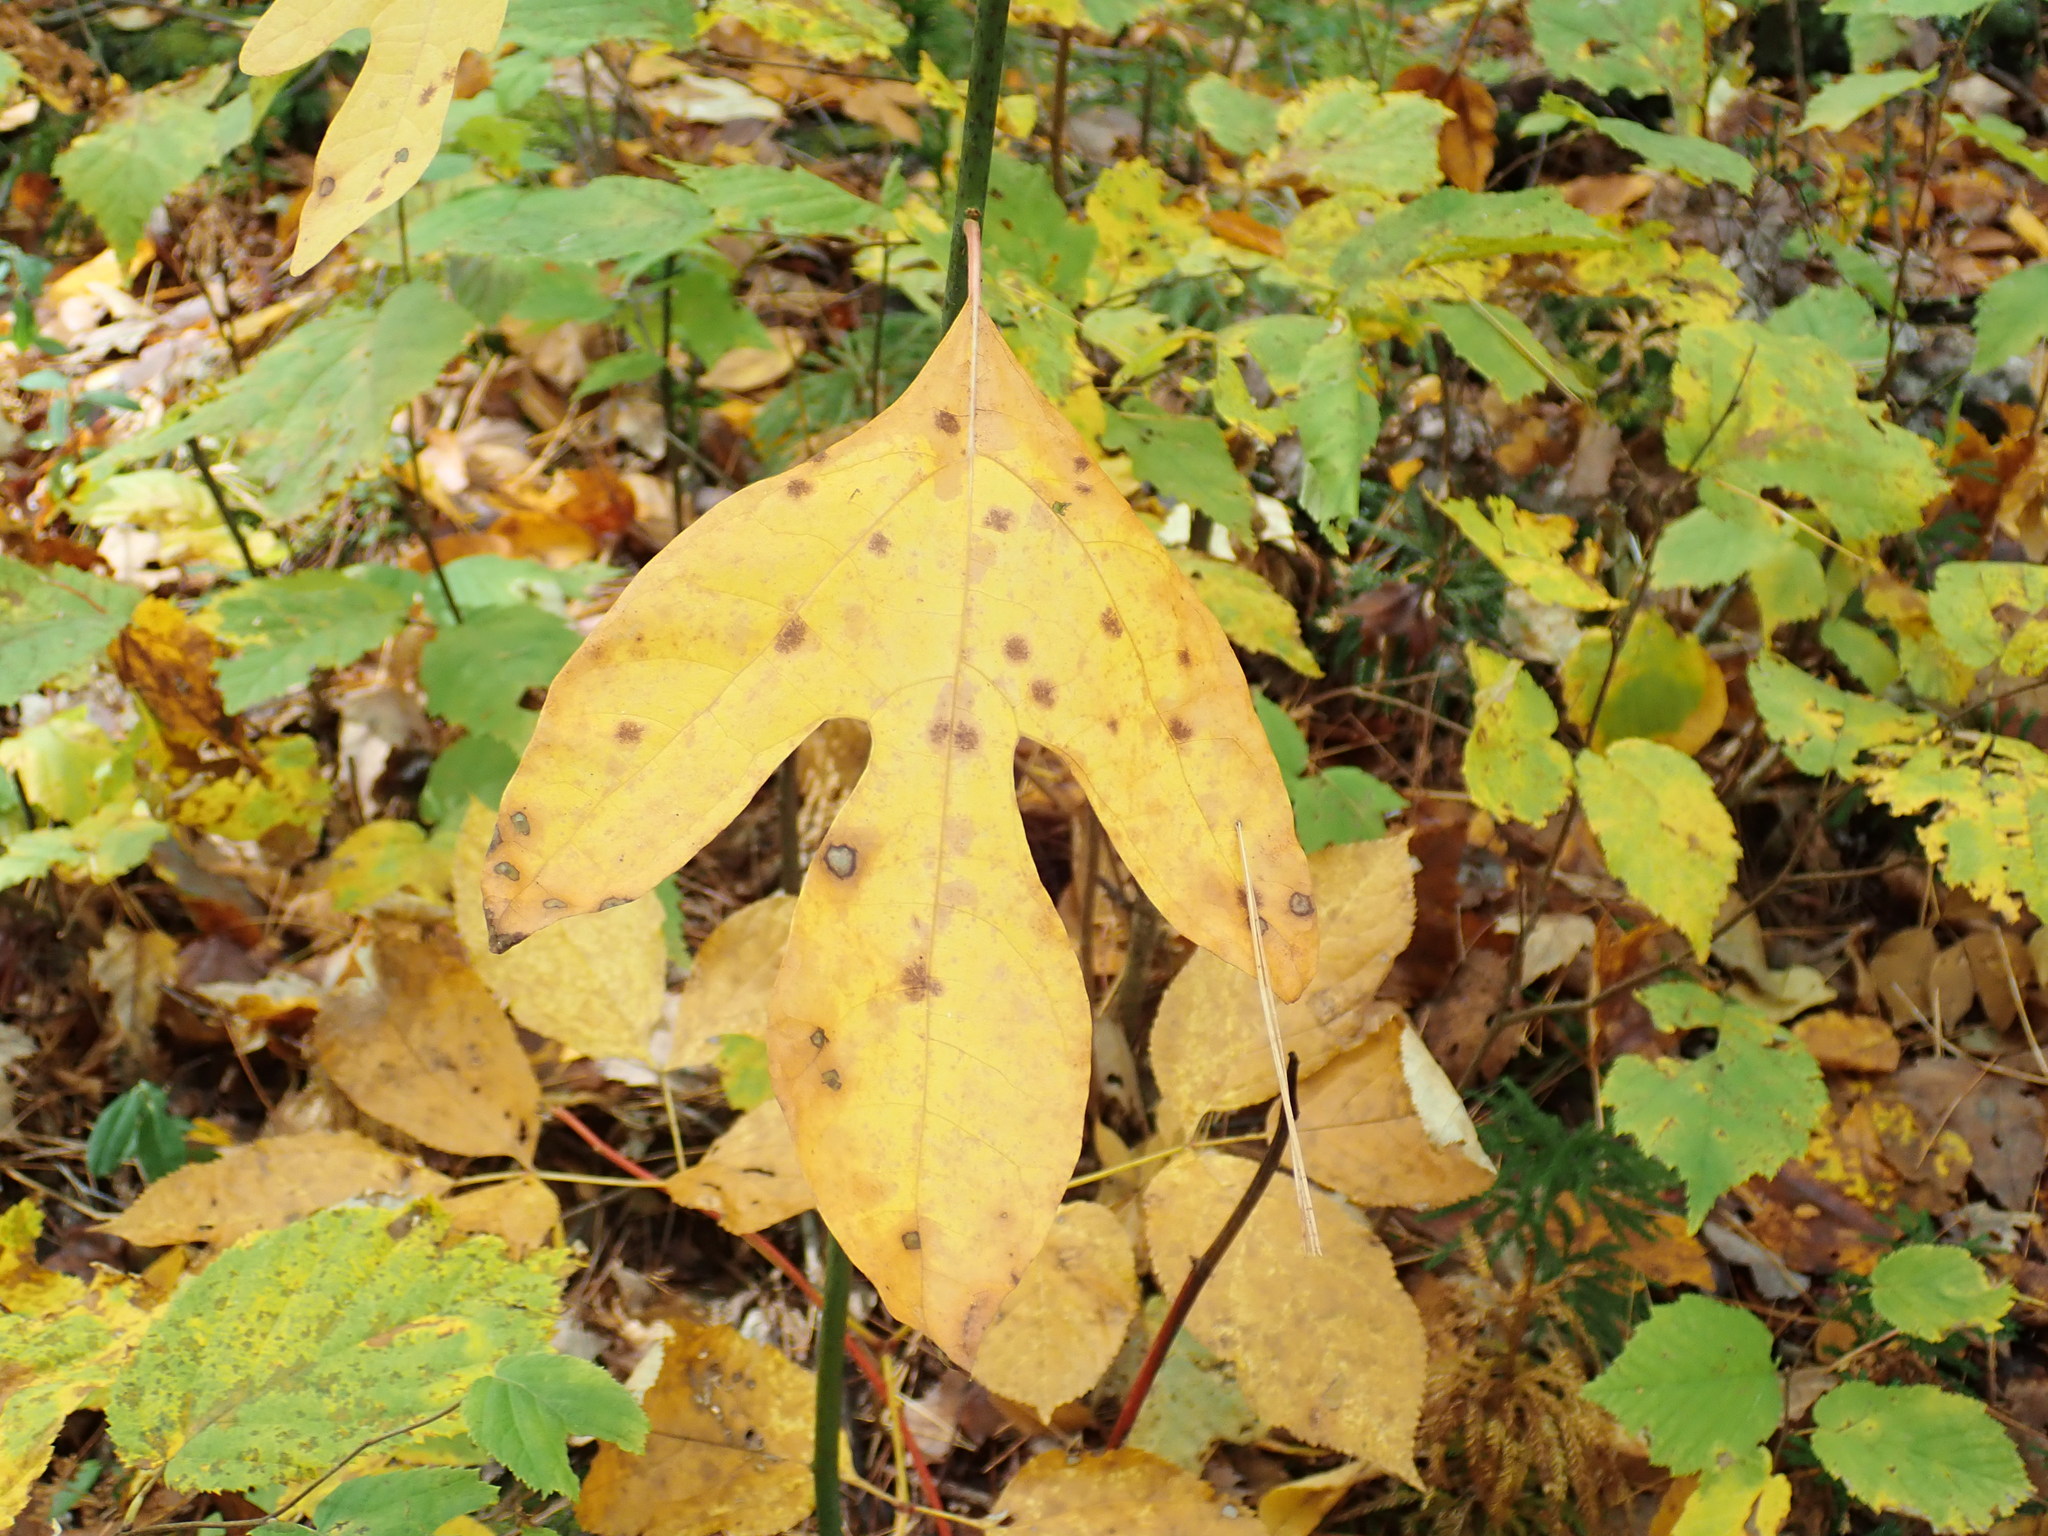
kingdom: Plantae
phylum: Tracheophyta
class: Magnoliopsida
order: Laurales
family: Lauraceae
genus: Sassafras
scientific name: Sassafras albidum
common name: Sassafras
